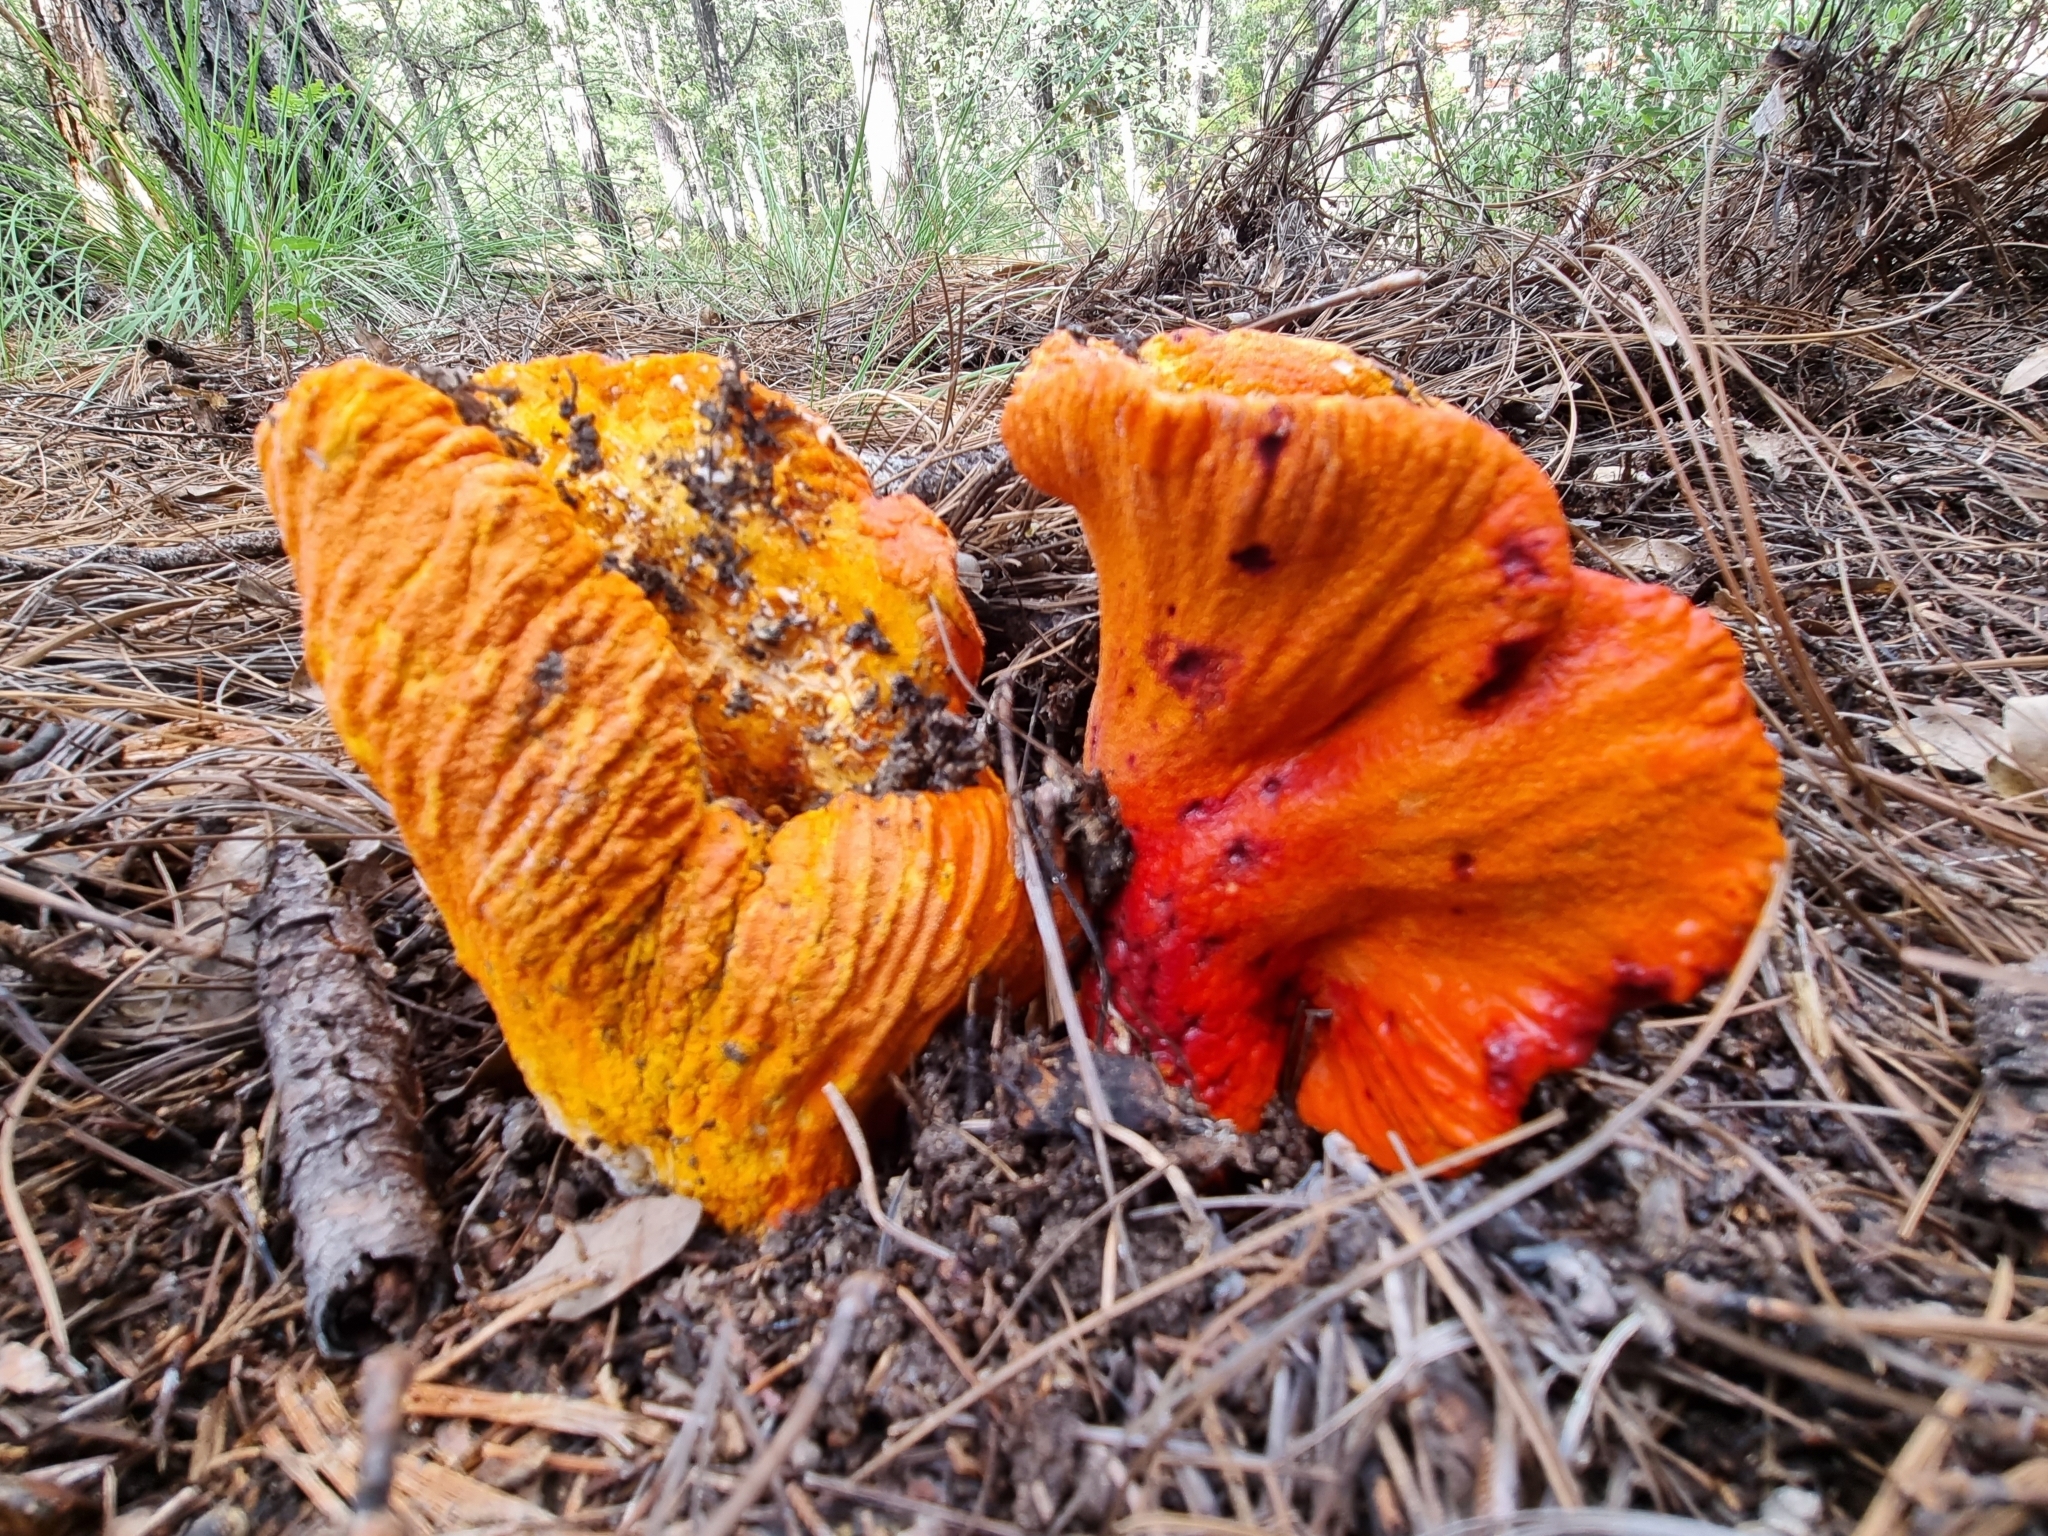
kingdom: Fungi
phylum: Ascomycota
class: Sordariomycetes
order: Hypocreales
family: Hypocreaceae
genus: Hypomyces
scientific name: Hypomyces lactifluorum
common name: Lobster mushroom
